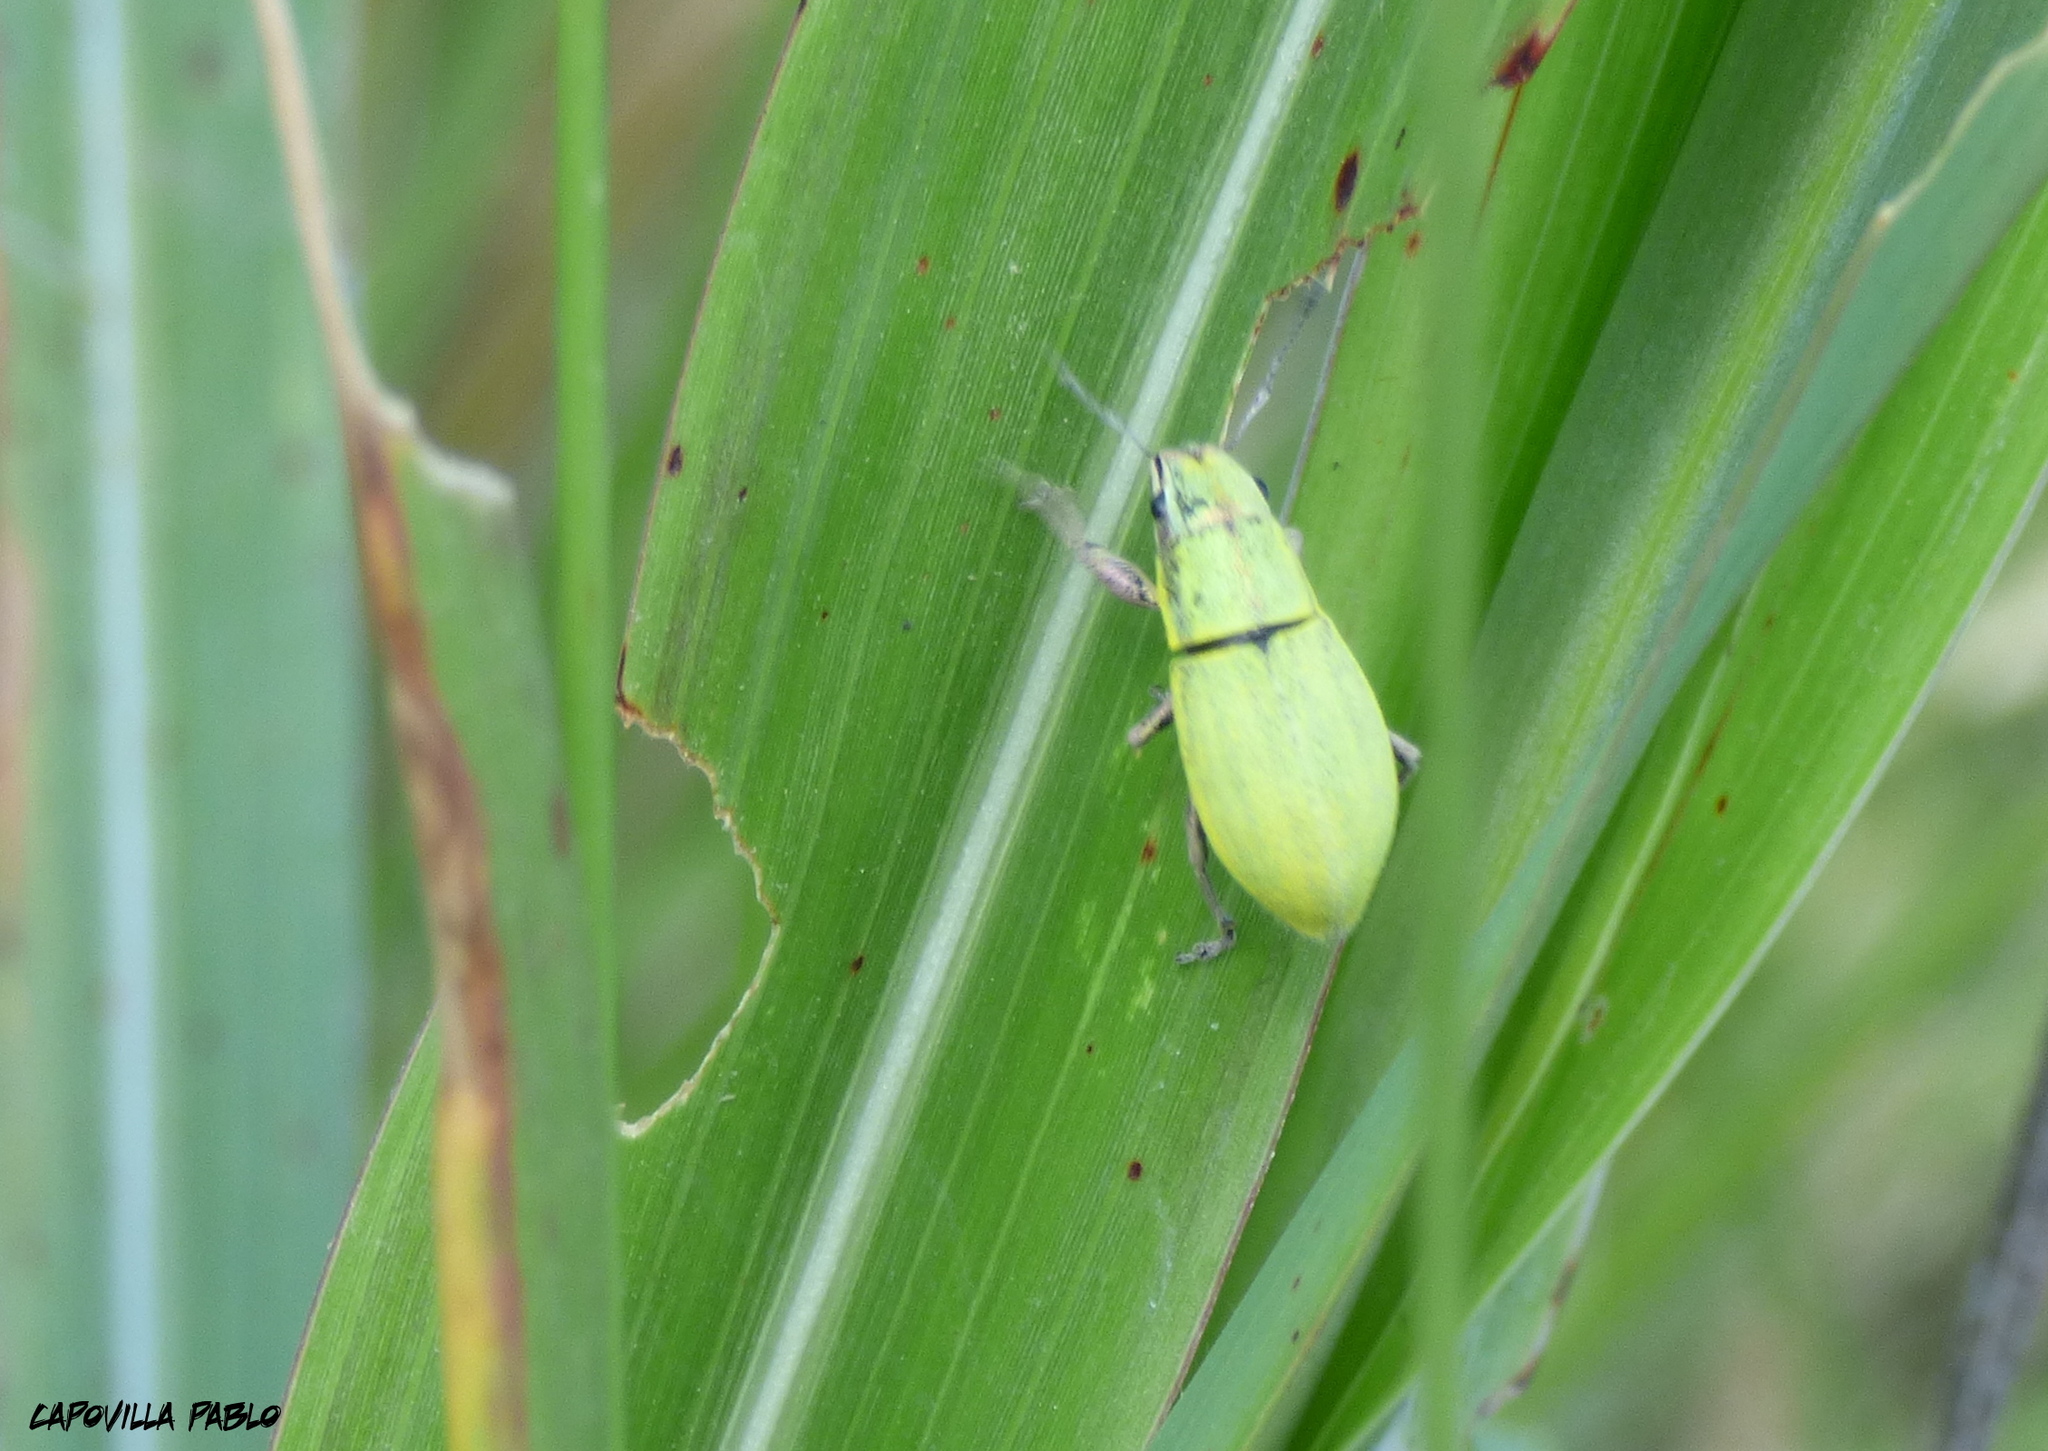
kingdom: Animalia
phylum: Arthropoda
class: Insecta
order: Coleoptera
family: Curculionidae
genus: Pantomorus
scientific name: Pantomorus viridisquamosus
